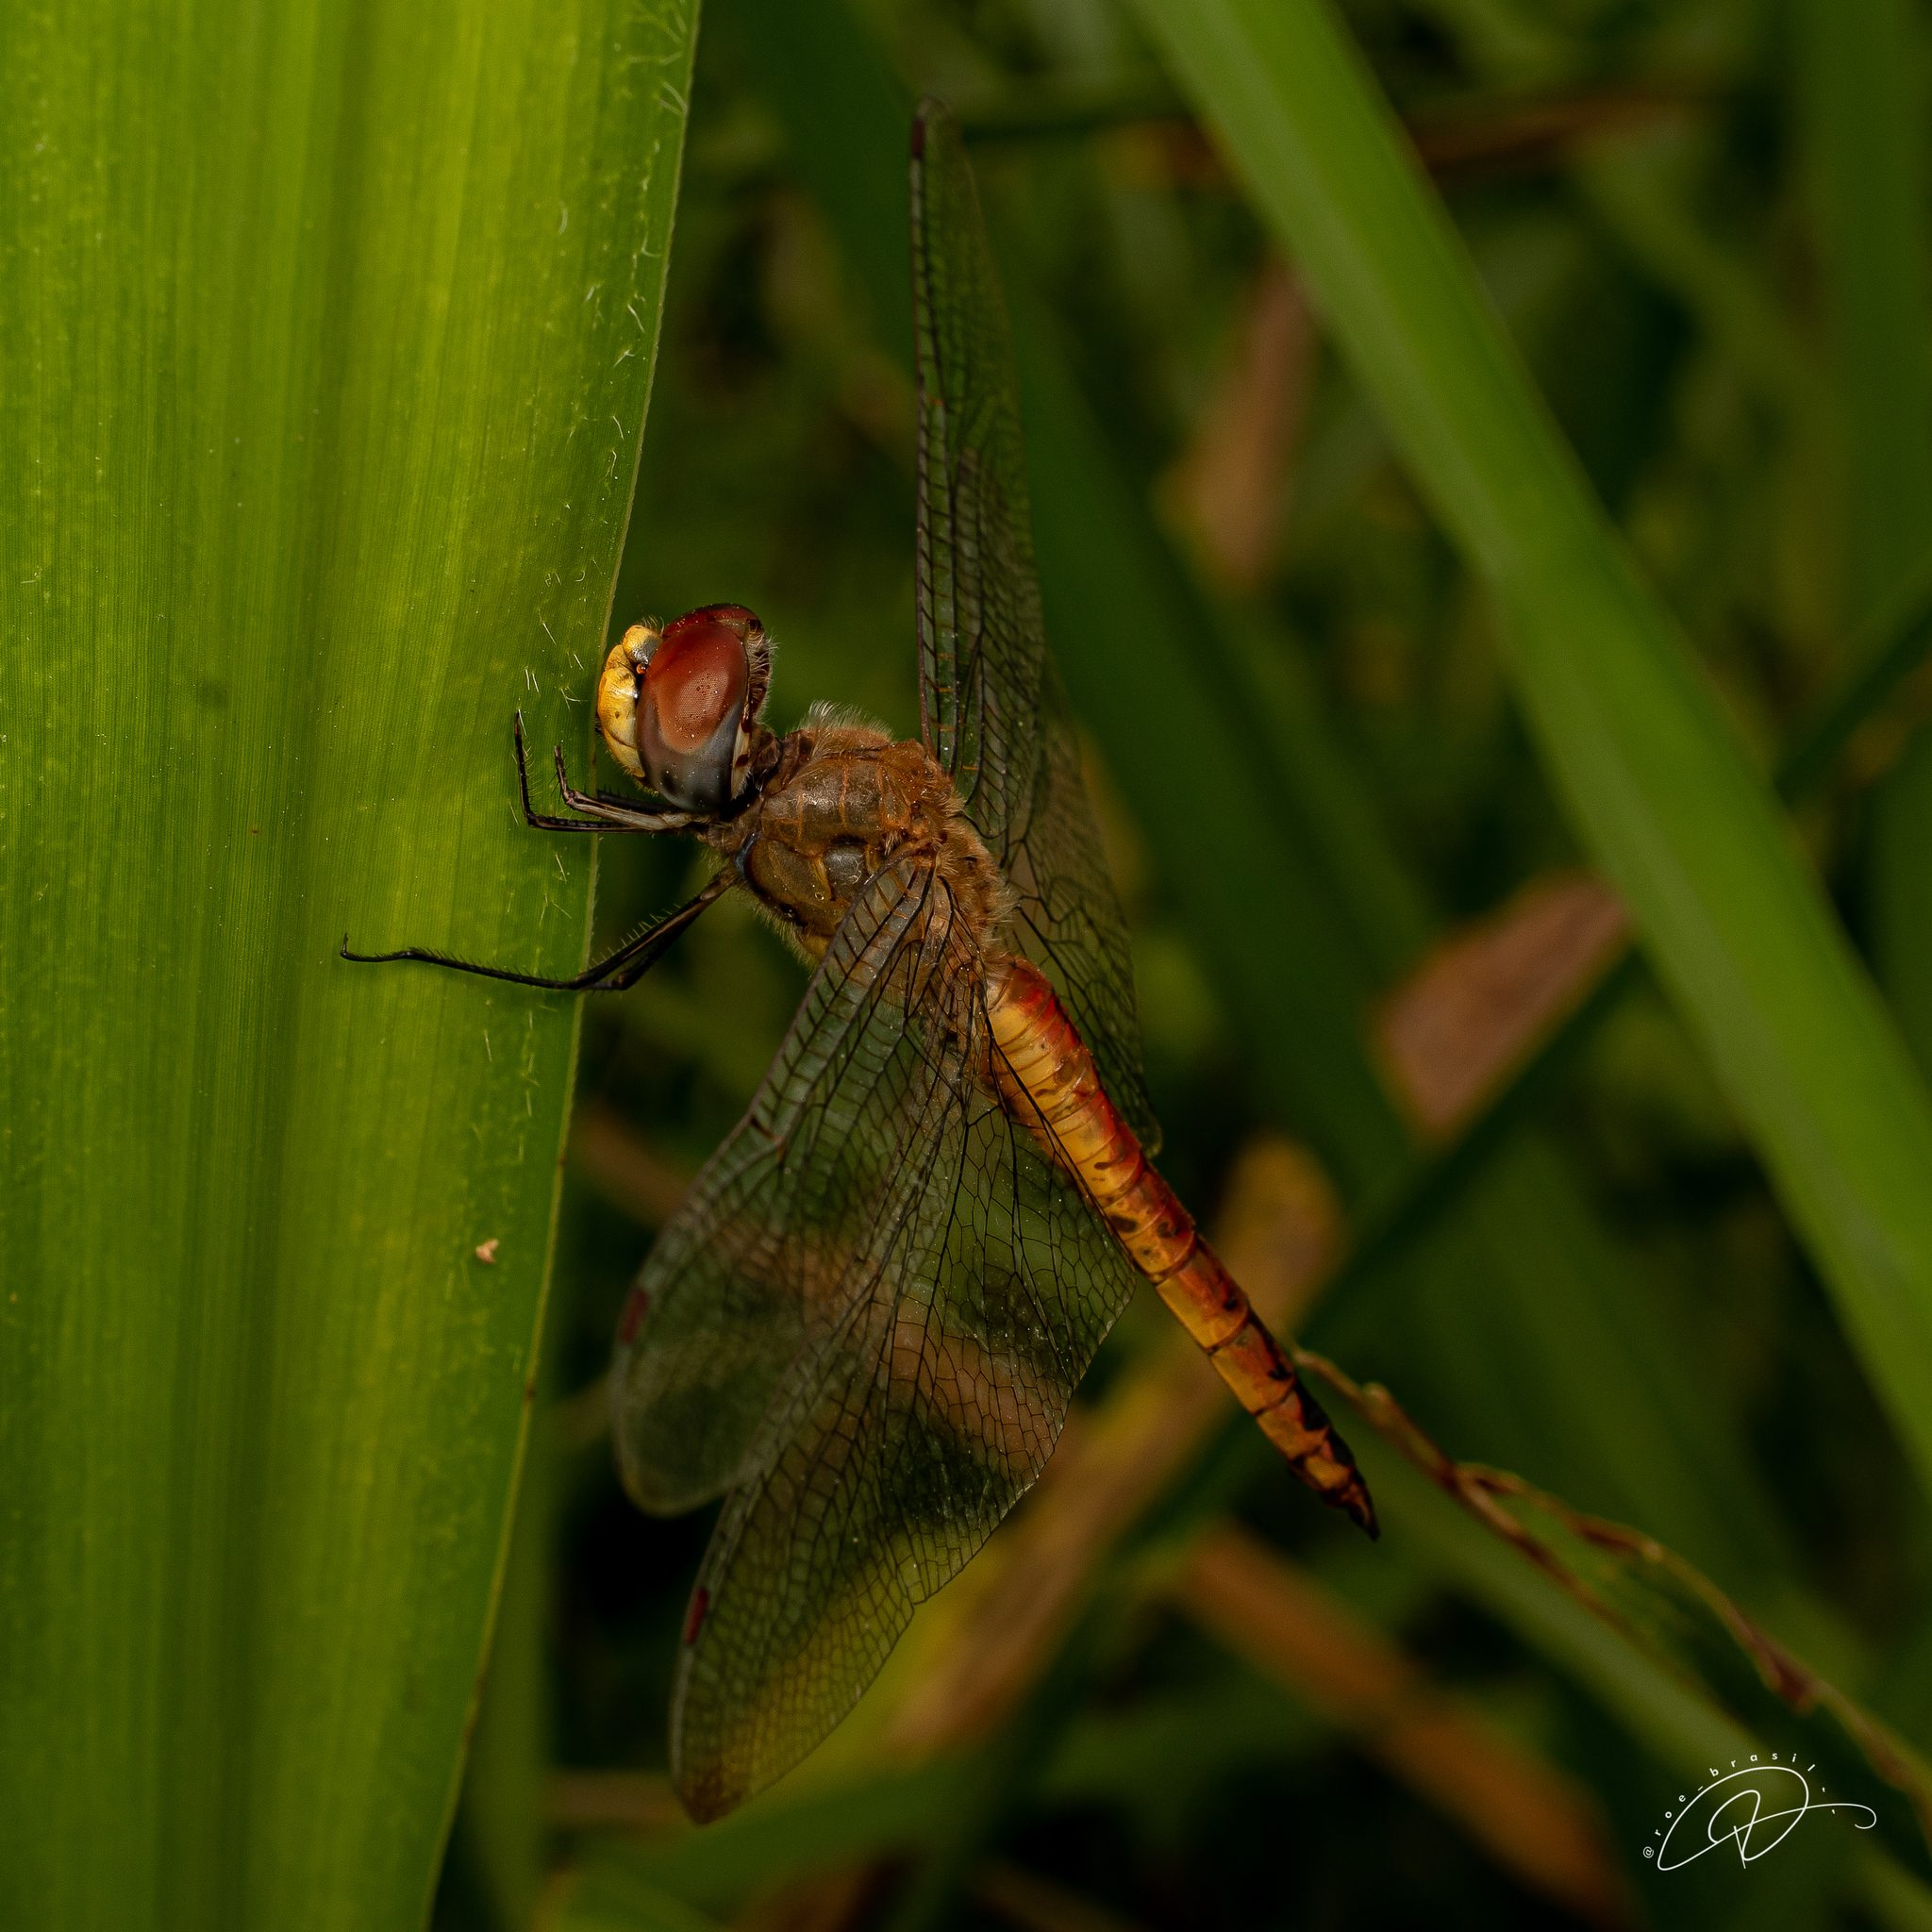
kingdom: Animalia
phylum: Arthropoda
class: Insecta
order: Odonata
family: Libellulidae
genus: Pantala
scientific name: Pantala flavescens
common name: Wandering glider
